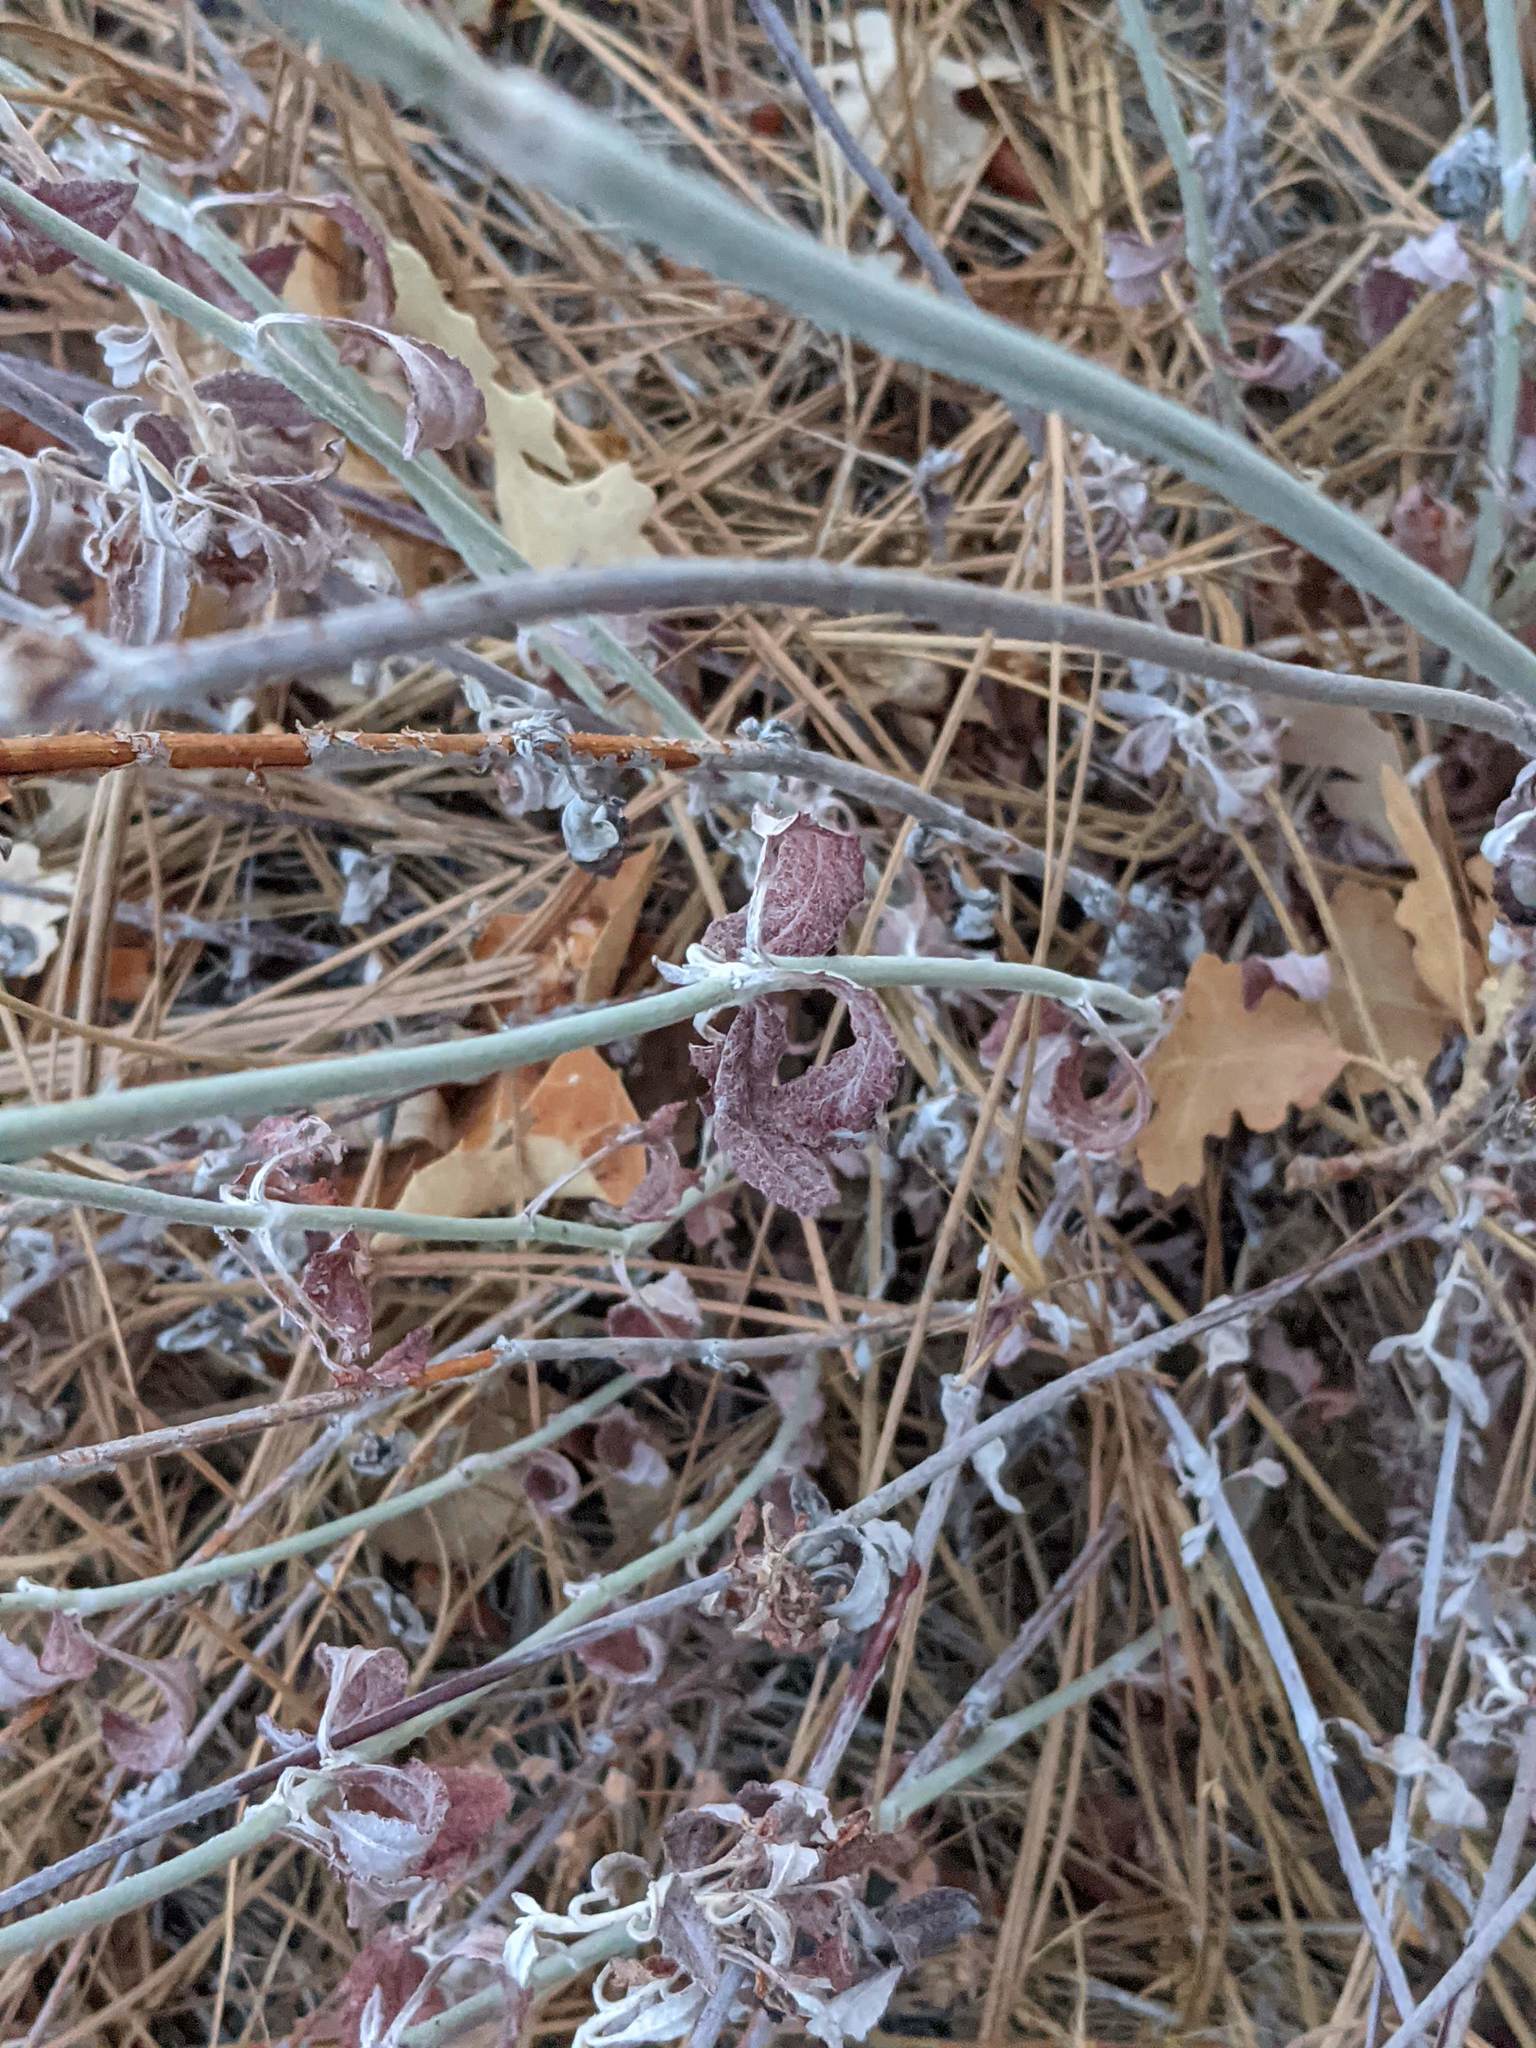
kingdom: Plantae
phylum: Tracheophyta
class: Magnoliopsida
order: Caryophyllales
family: Polygonaceae
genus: Eriogonum
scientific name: Eriogonum elongatum
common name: Long-stem wild buckwheat
